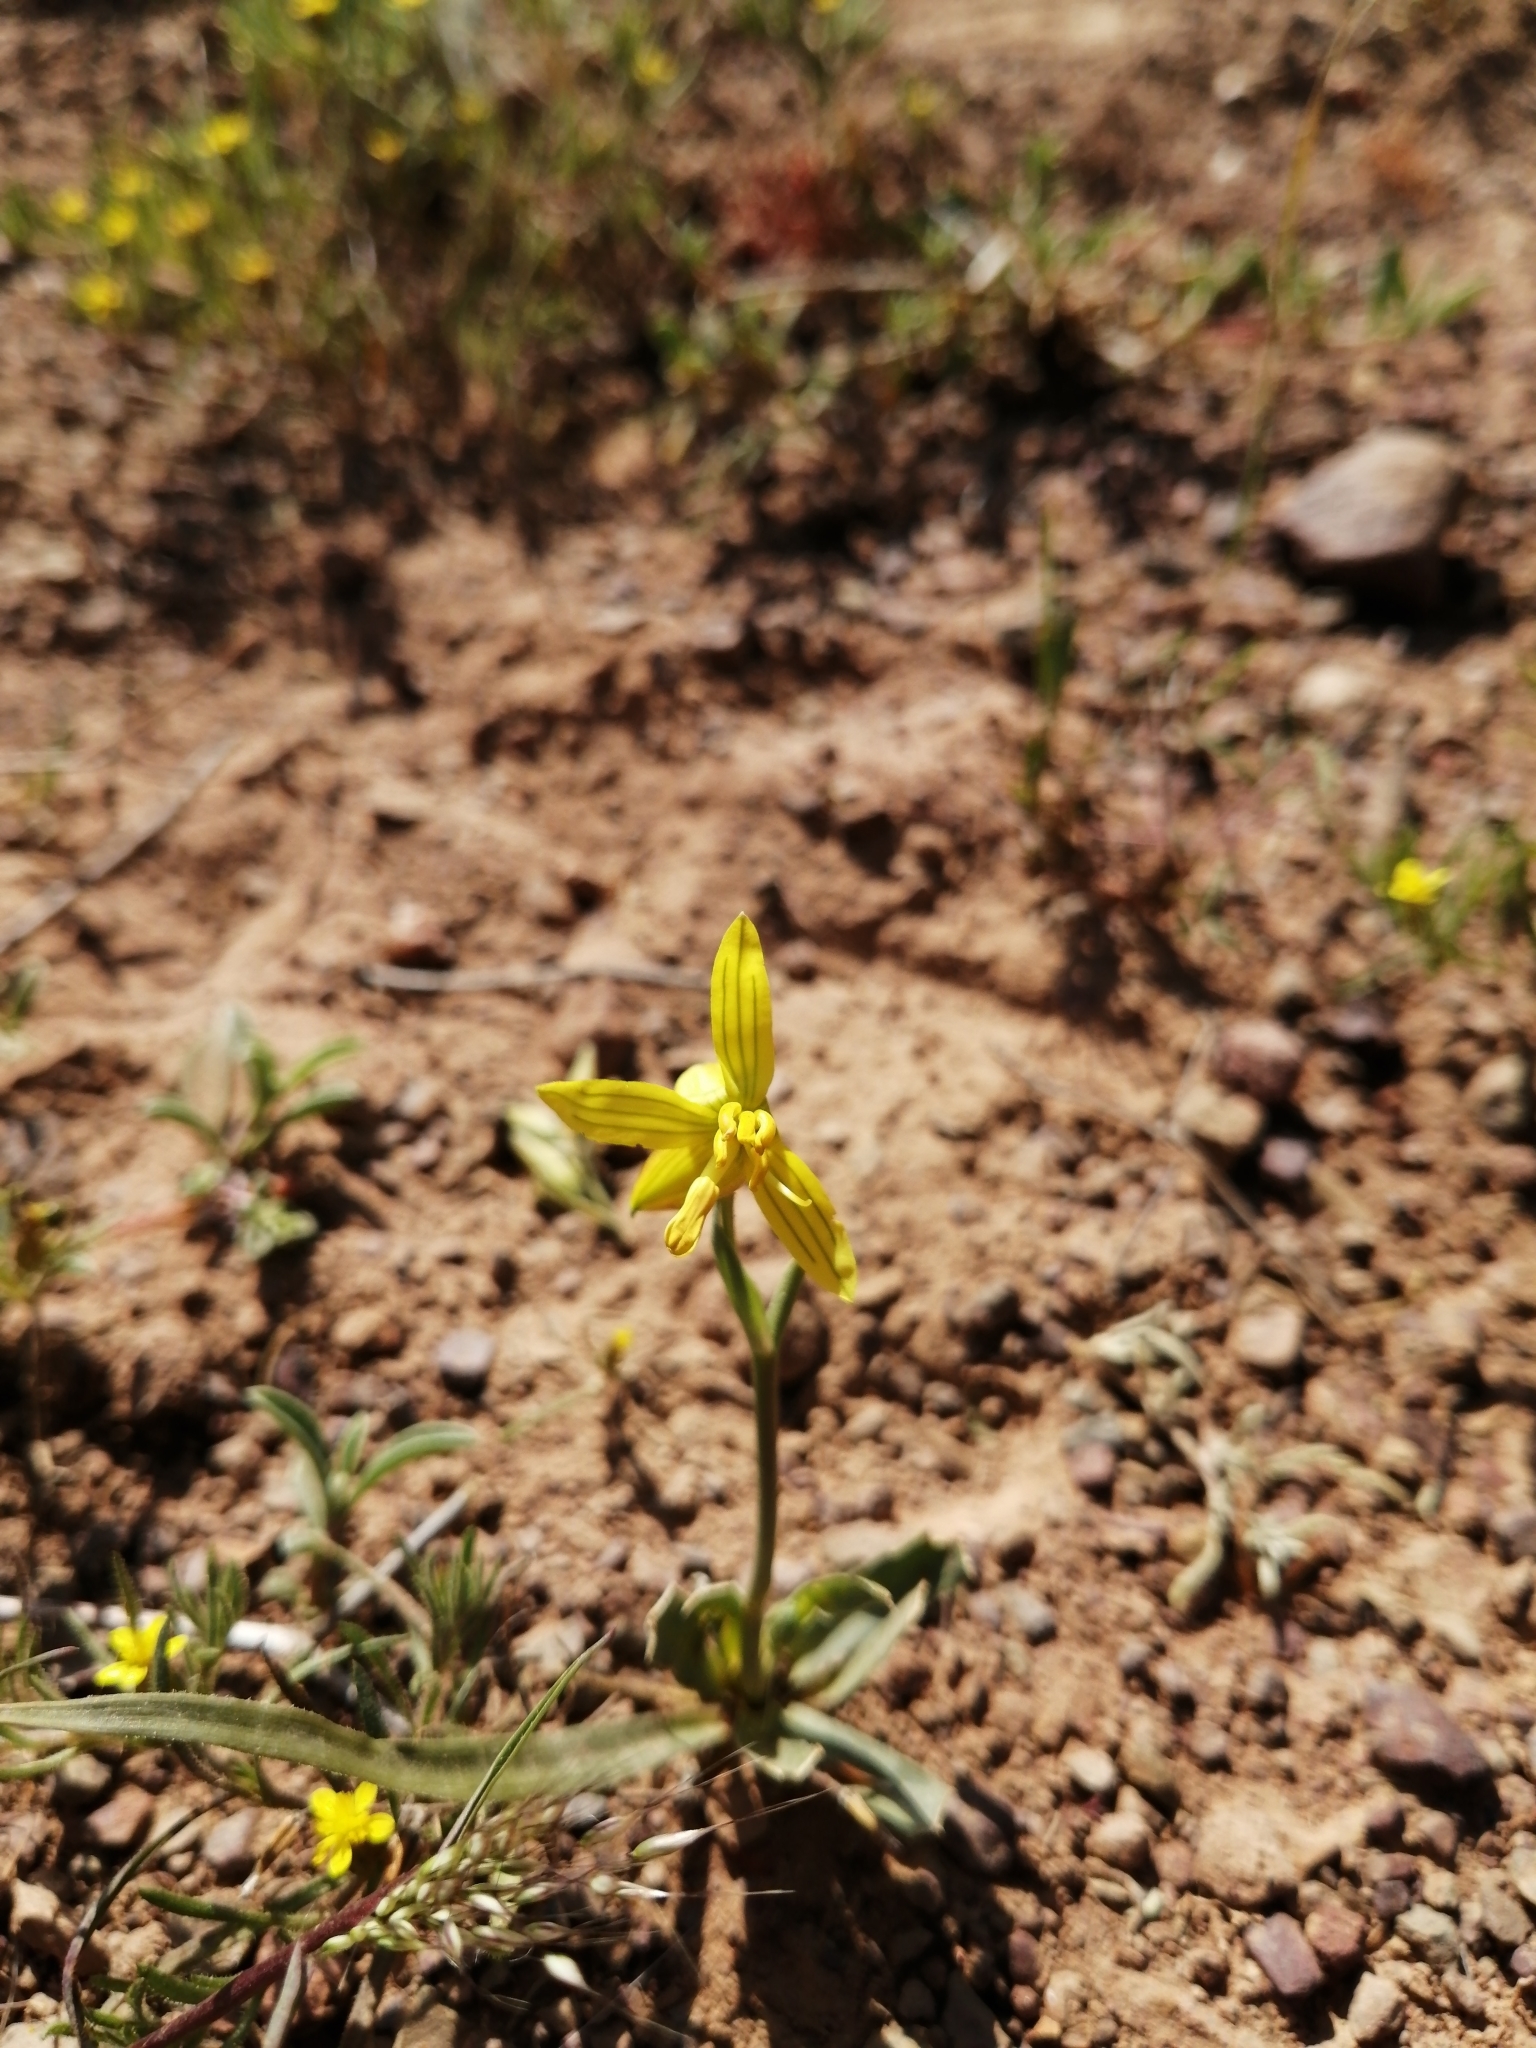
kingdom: Plantae
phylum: Tracheophyta
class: Liliopsida
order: Asparagales
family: Tecophilaeaceae
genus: Cyanella
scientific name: Cyanella lutea
